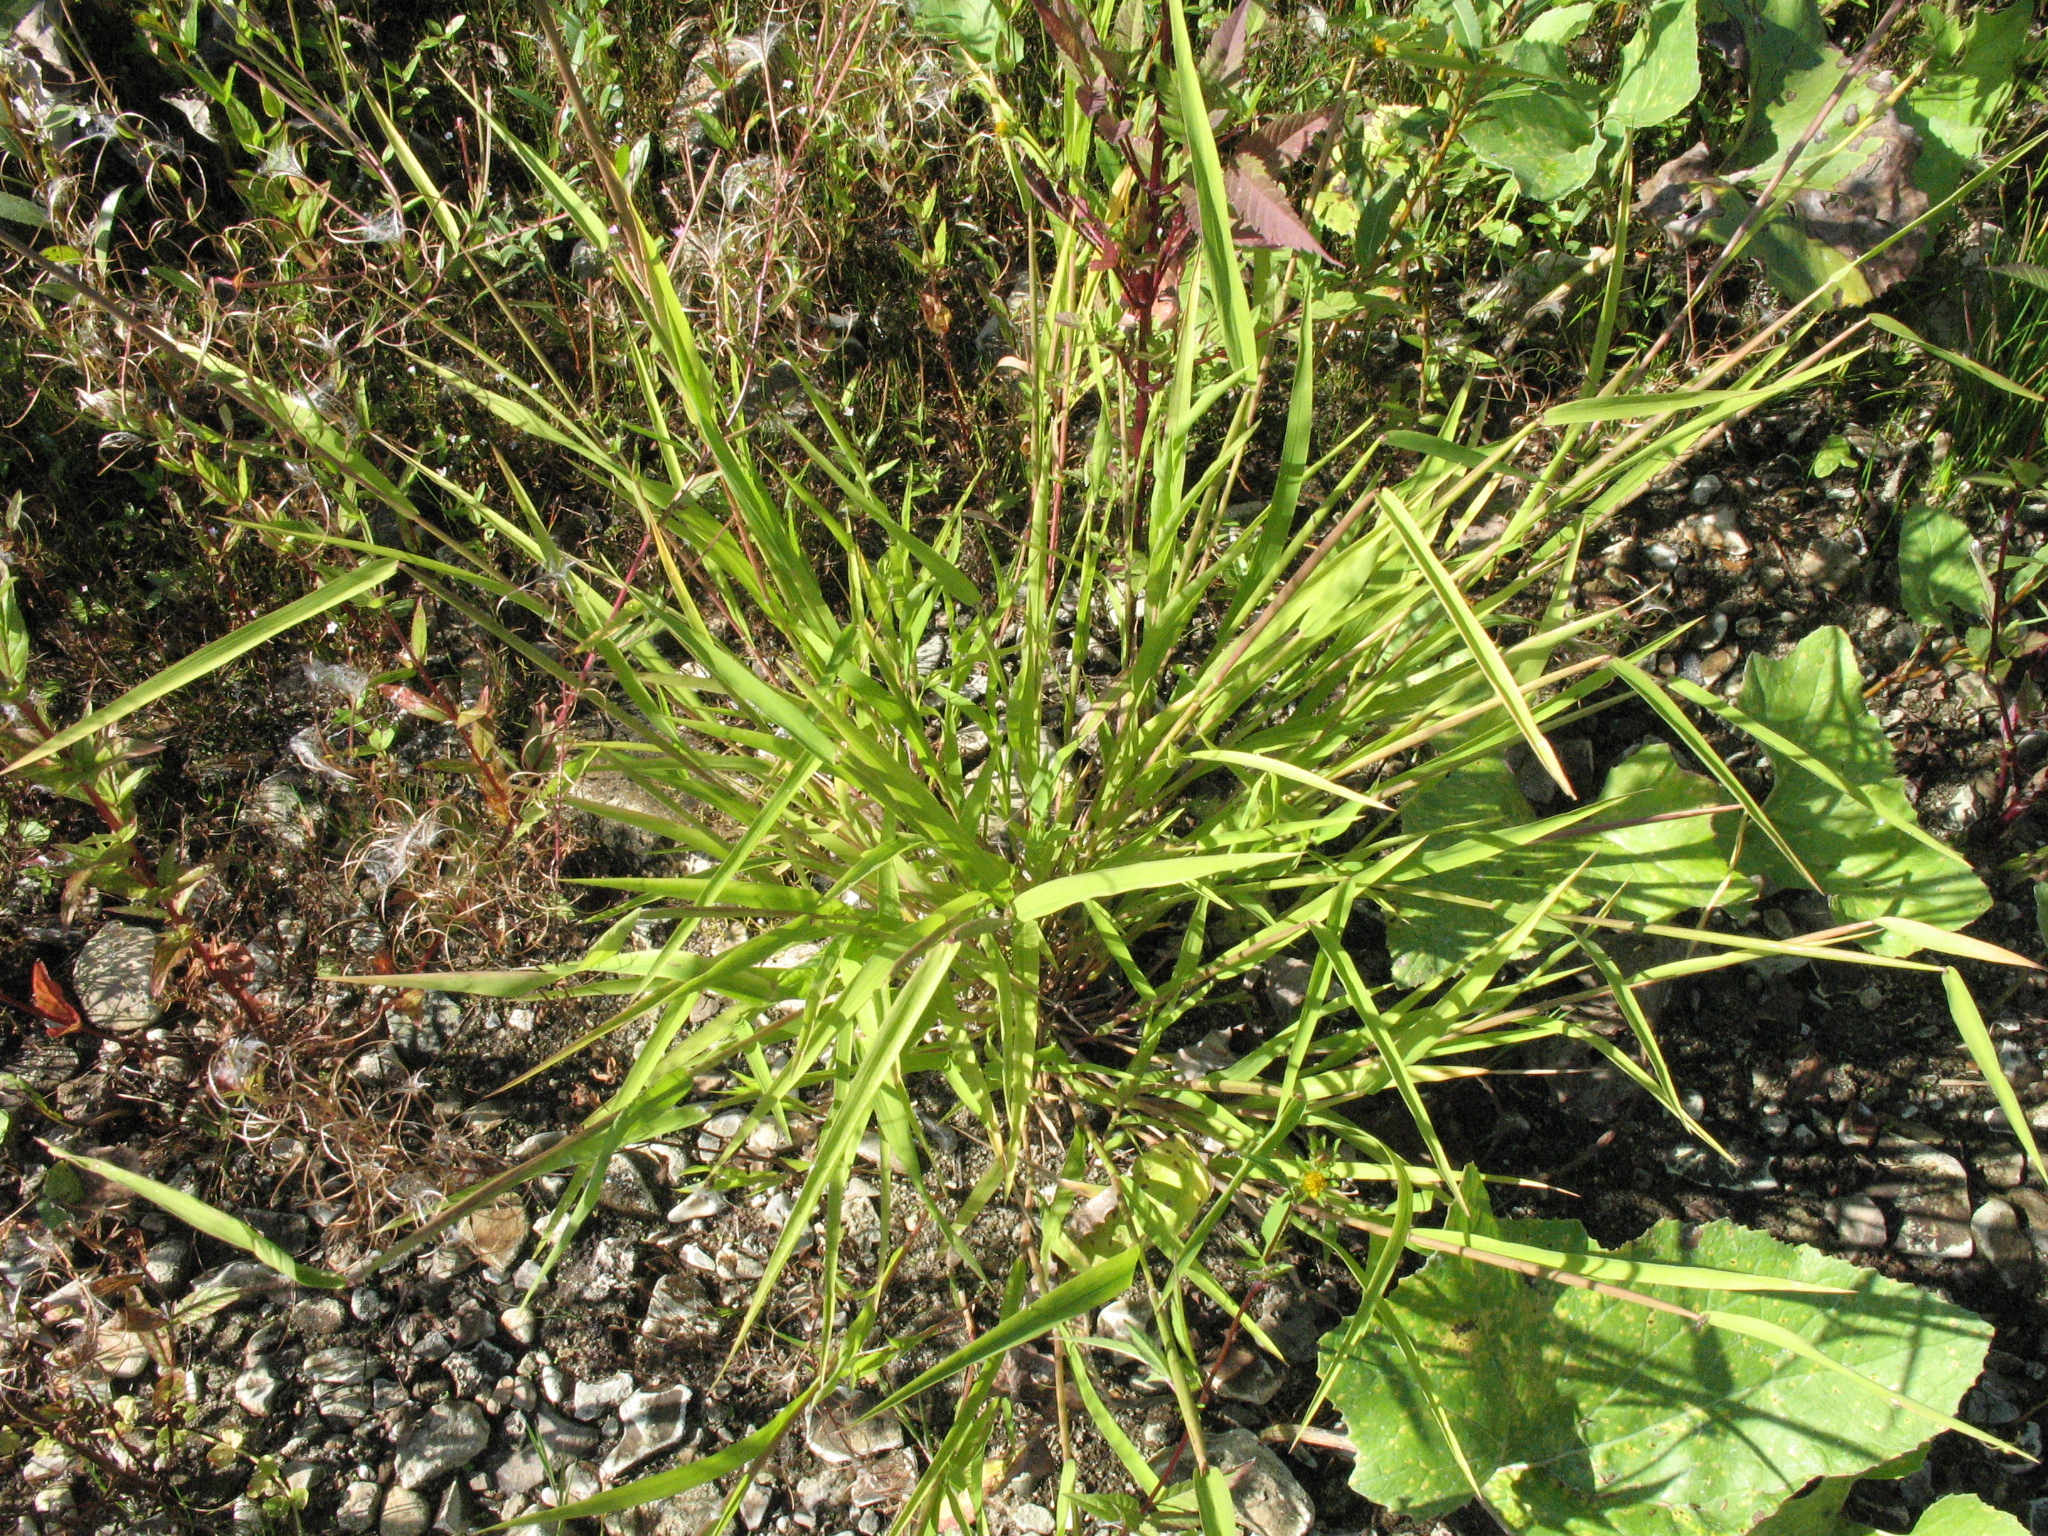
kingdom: Plantae
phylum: Tracheophyta
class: Liliopsida
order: Poales
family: Poaceae
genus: Agrostis
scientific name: Agrostis stolonifera
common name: Creeping bentgrass
